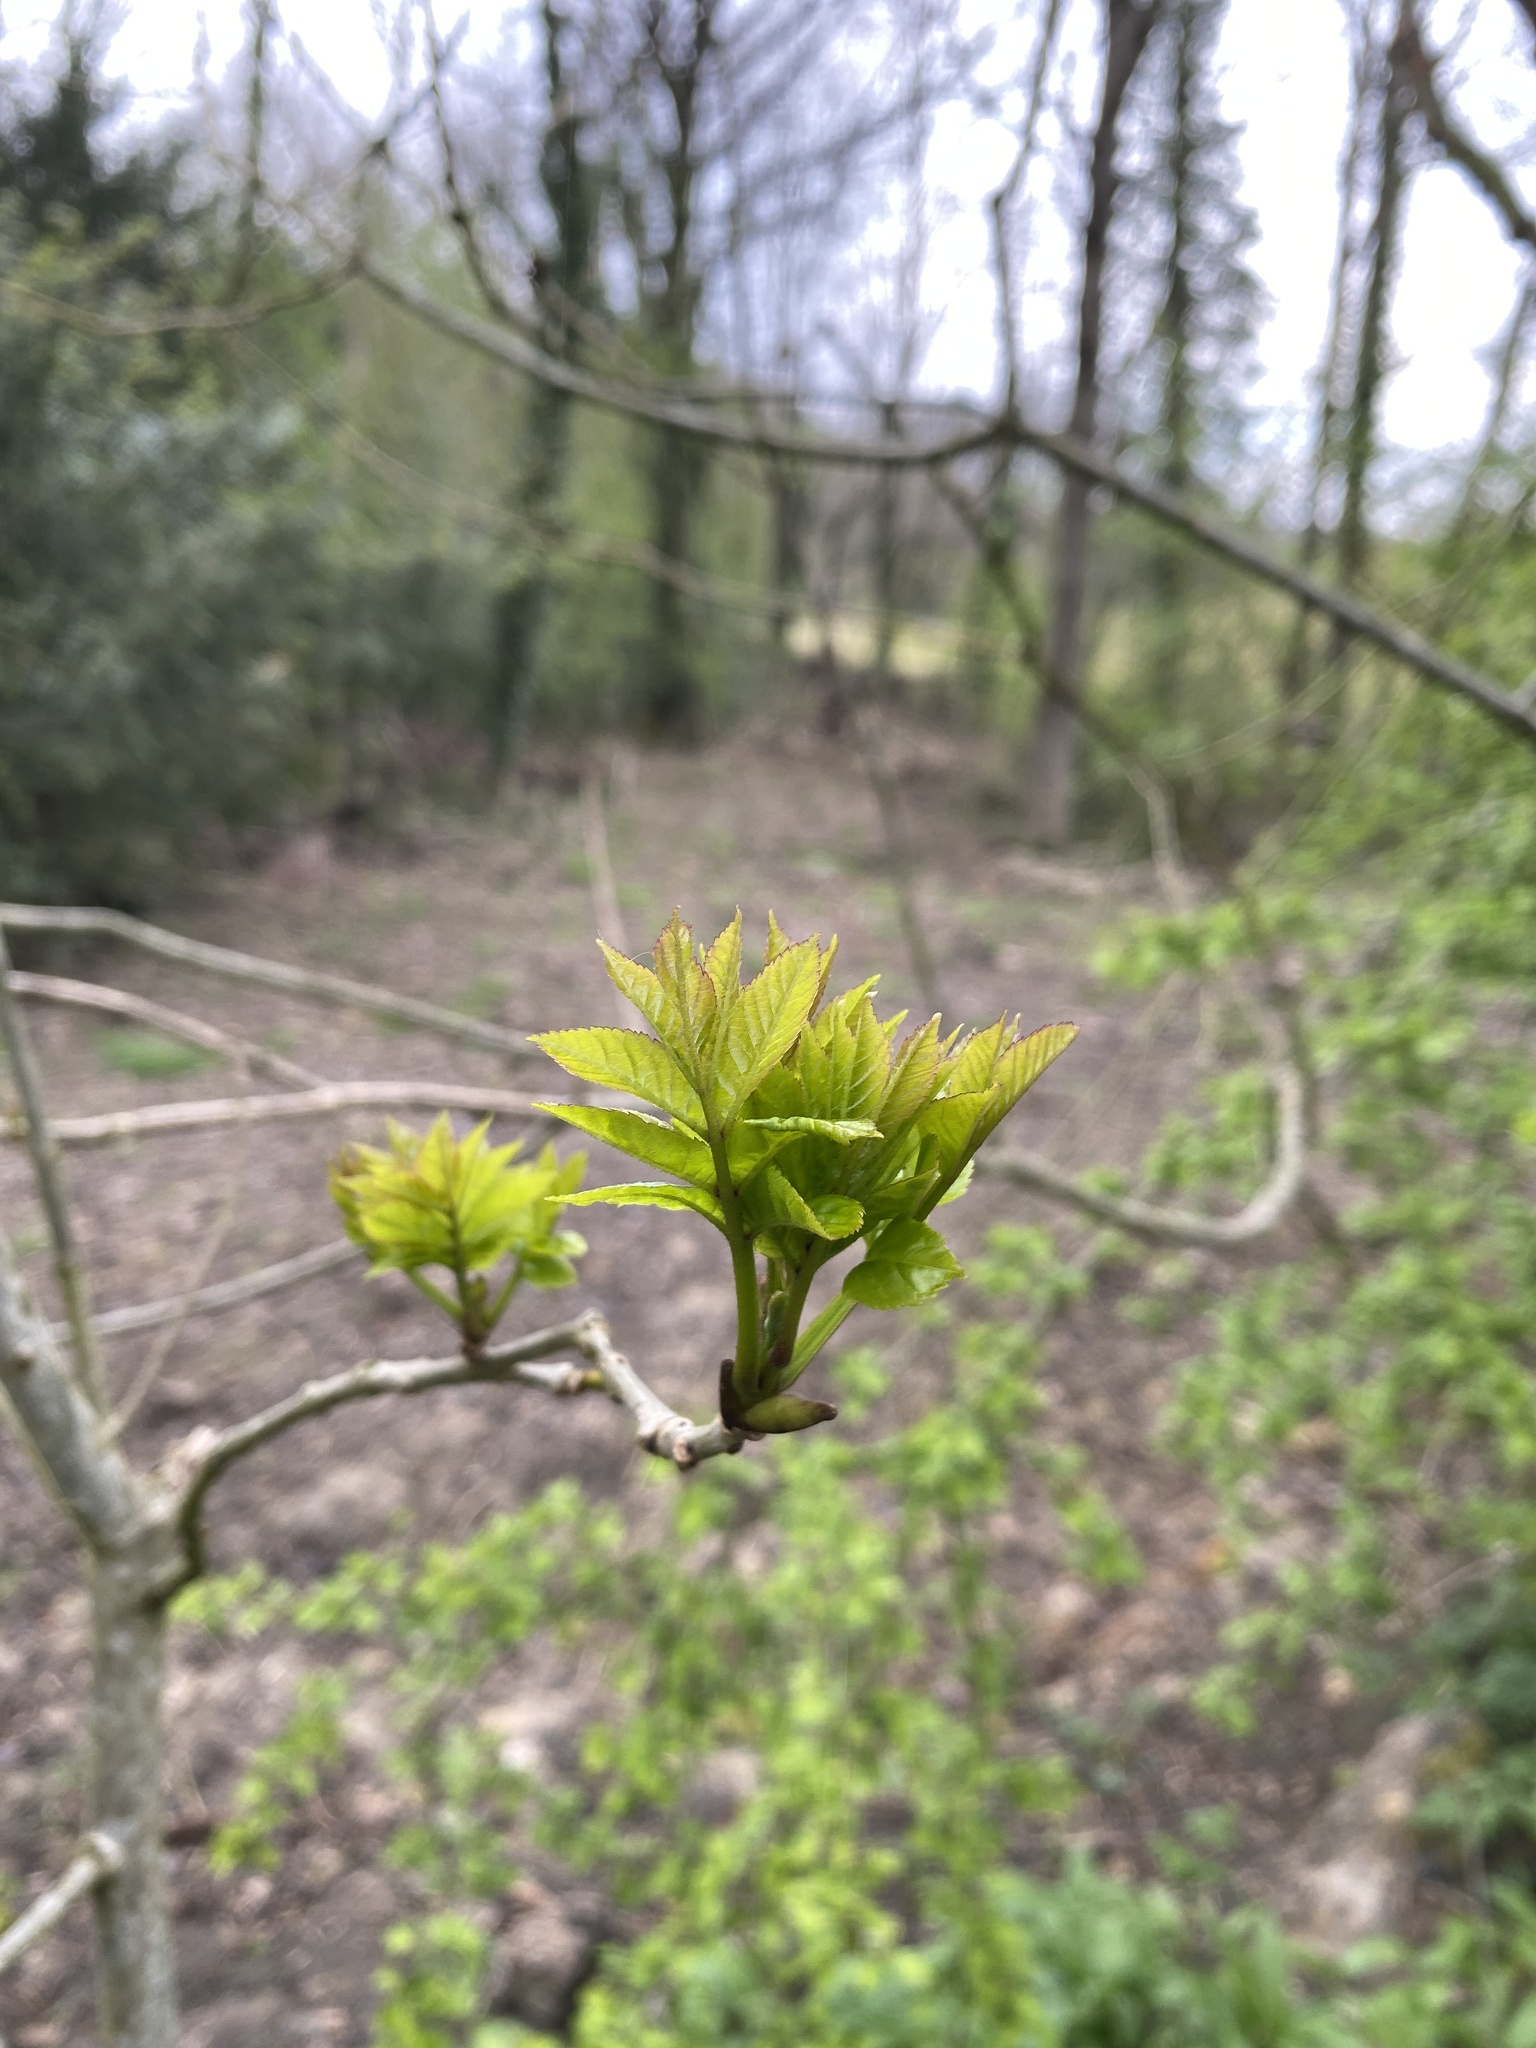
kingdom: Plantae
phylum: Tracheophyta
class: Magnoliopsida
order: Lamiales
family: Oleaceae
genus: Fraxinus
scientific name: Fraxinus excelsior
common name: European ash
